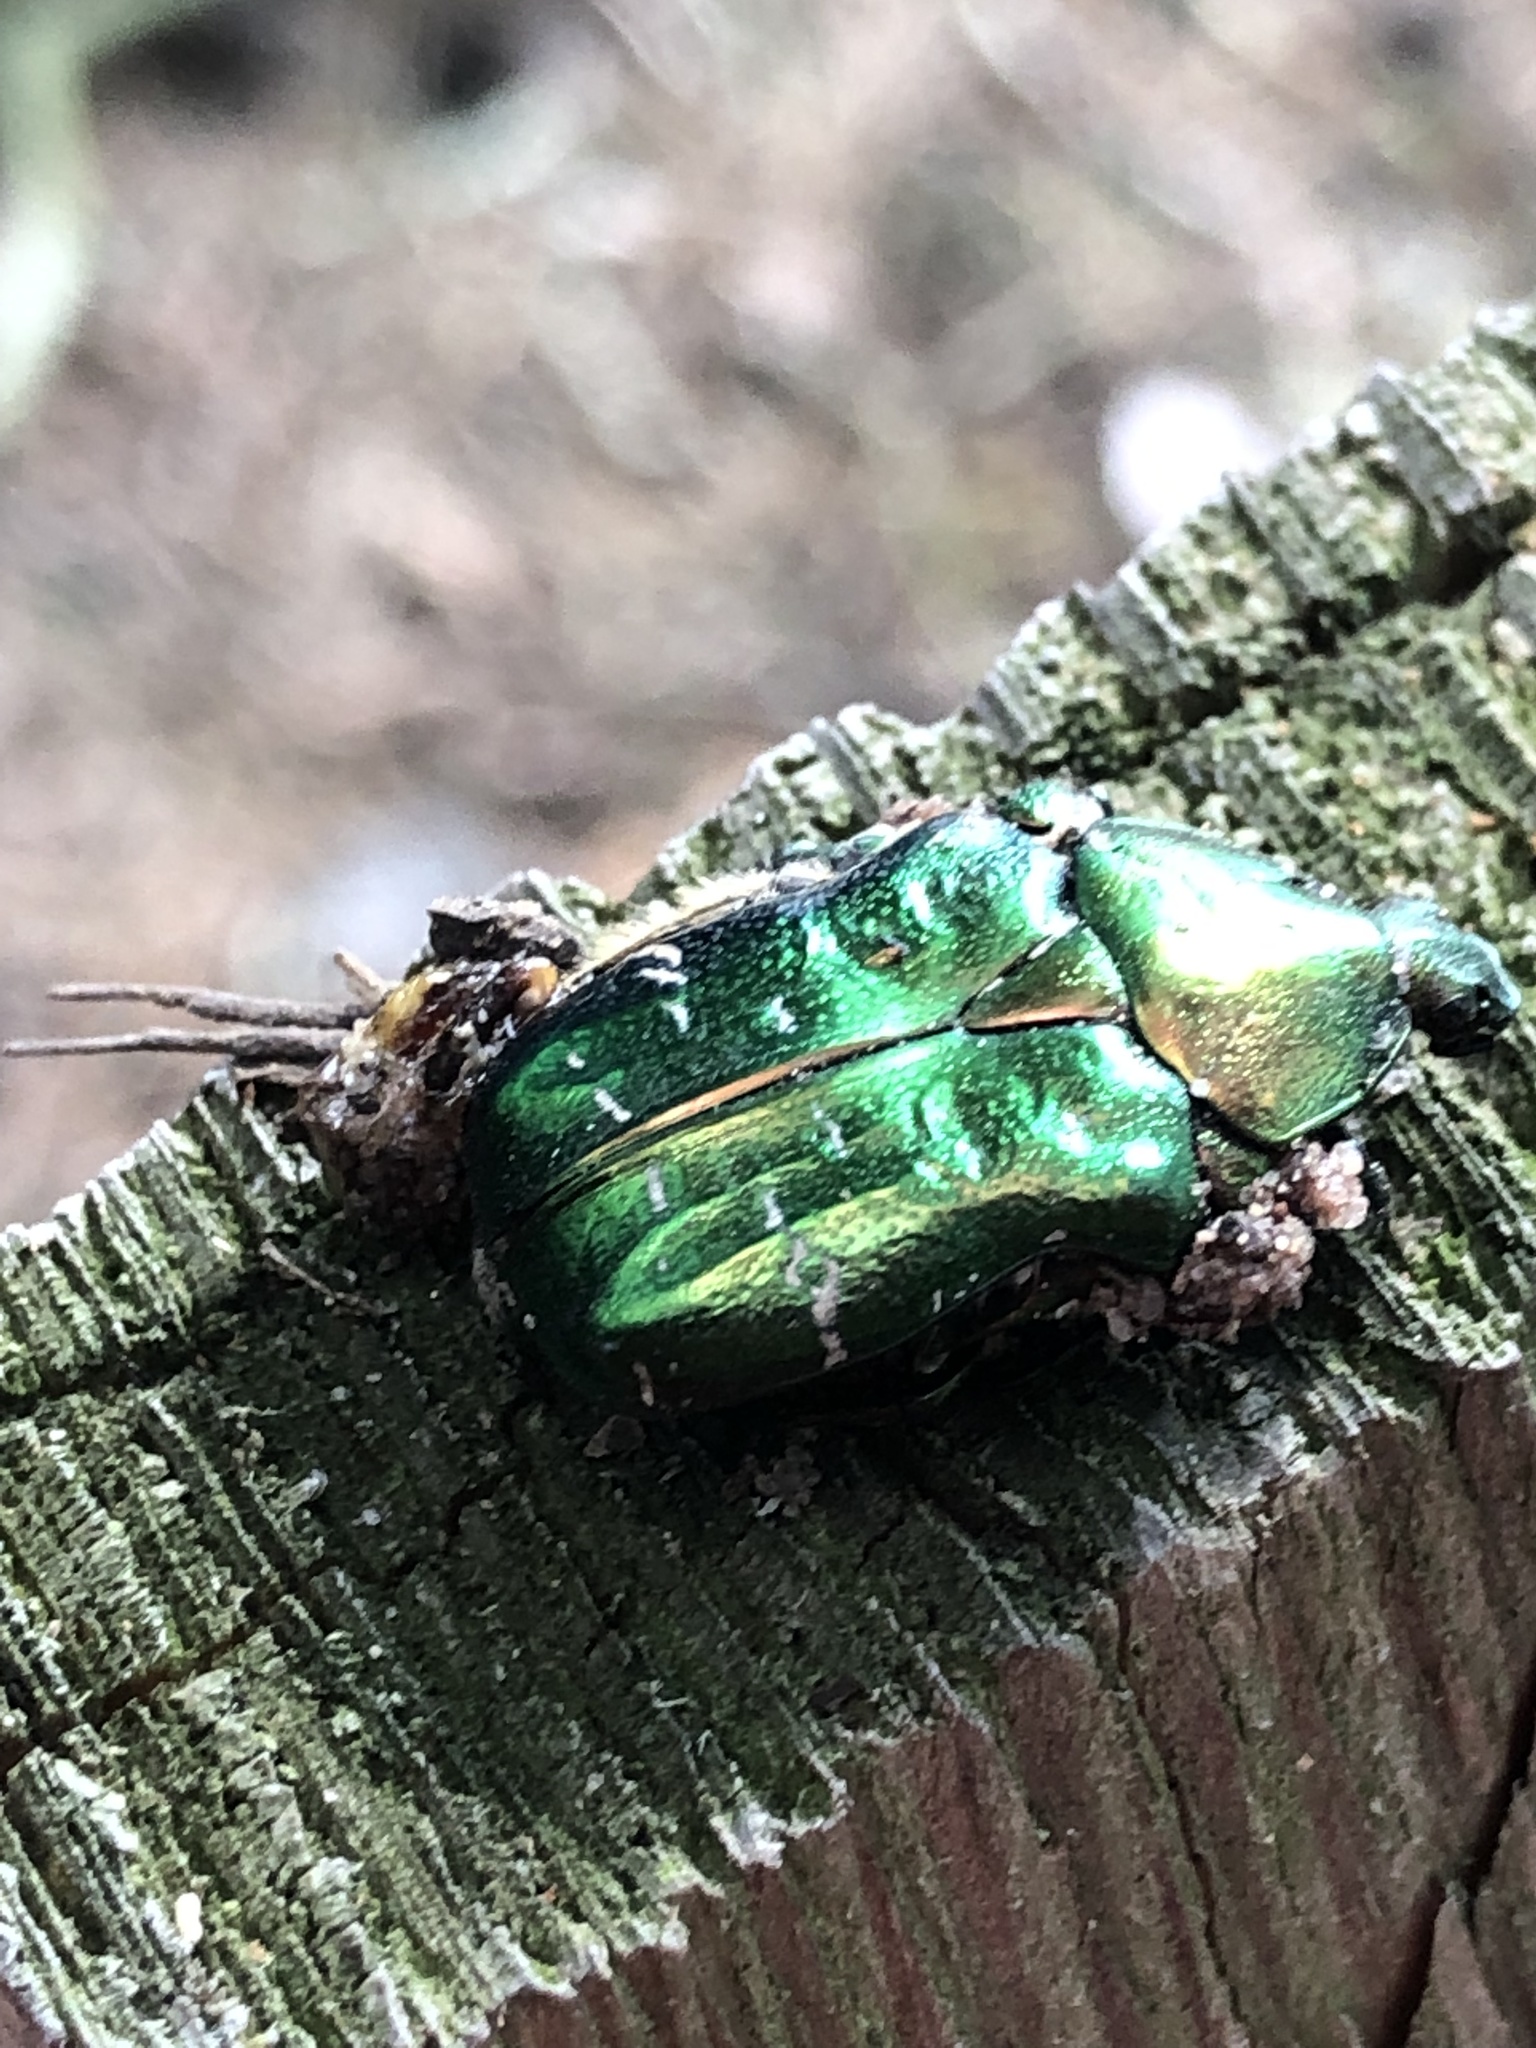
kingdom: Animalia
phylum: Arthropoda
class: Insecta
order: Coleoptera
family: Scarabaeidae
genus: Cetonia
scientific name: Cetonia aurata
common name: Rose chafer
